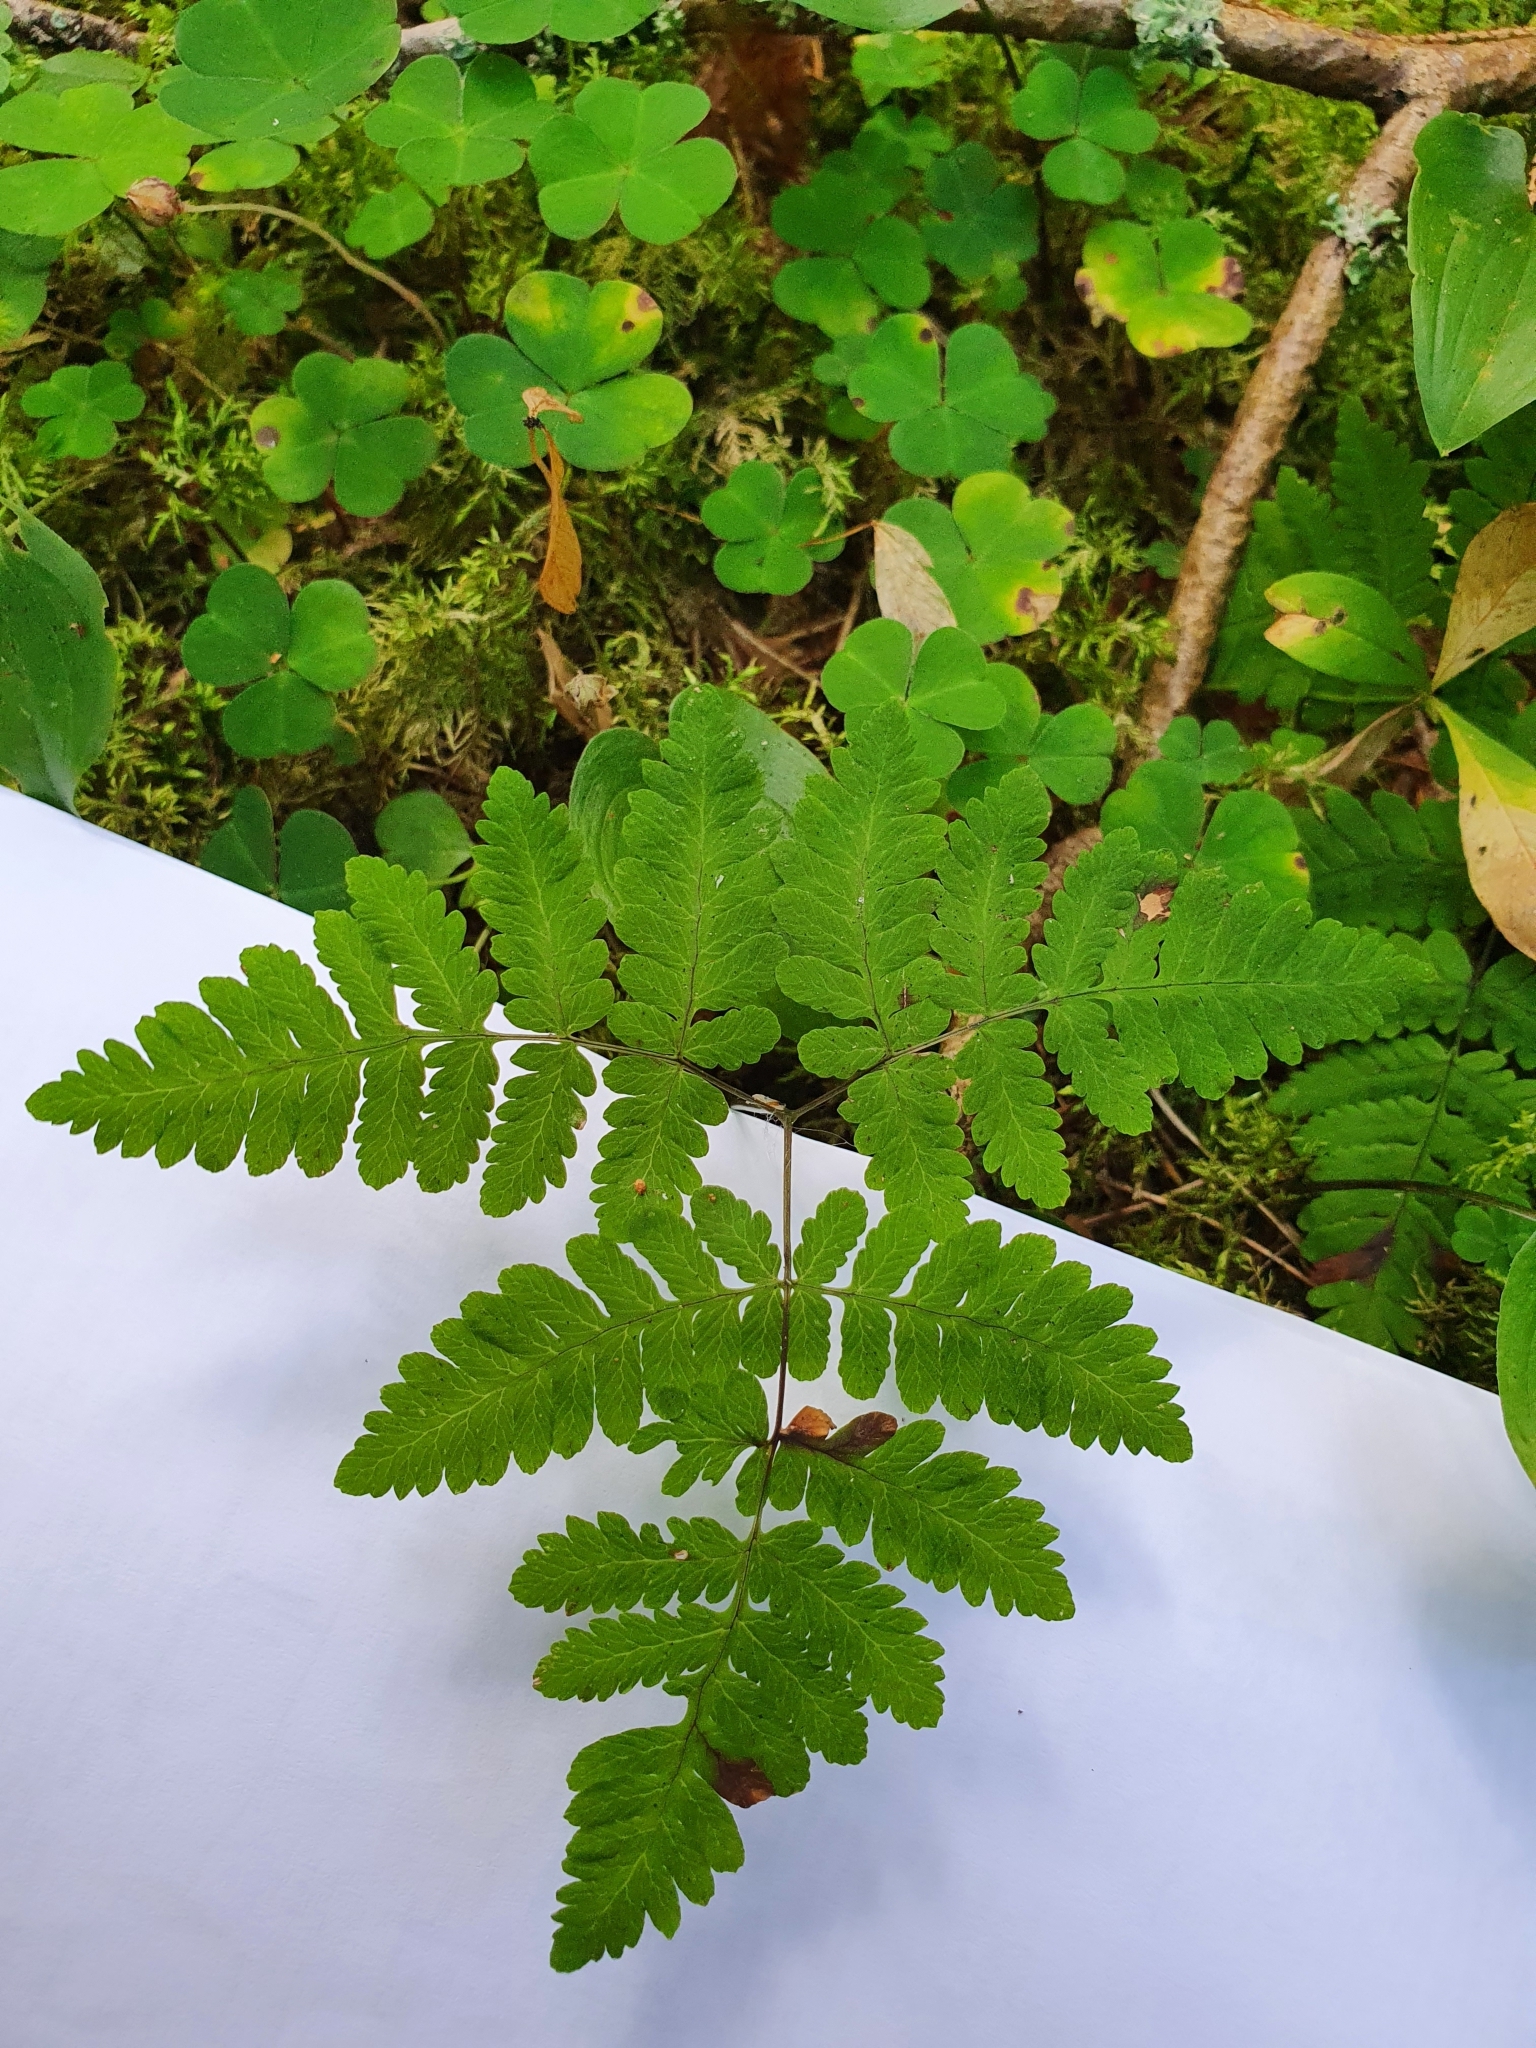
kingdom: Plantae
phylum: Tracheophyta
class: Polypodiopsida
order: Polypodiales
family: Cystopteridaceae
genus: Gymnocarpium
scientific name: Gymnocarpium dryopteris
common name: Oak fern
